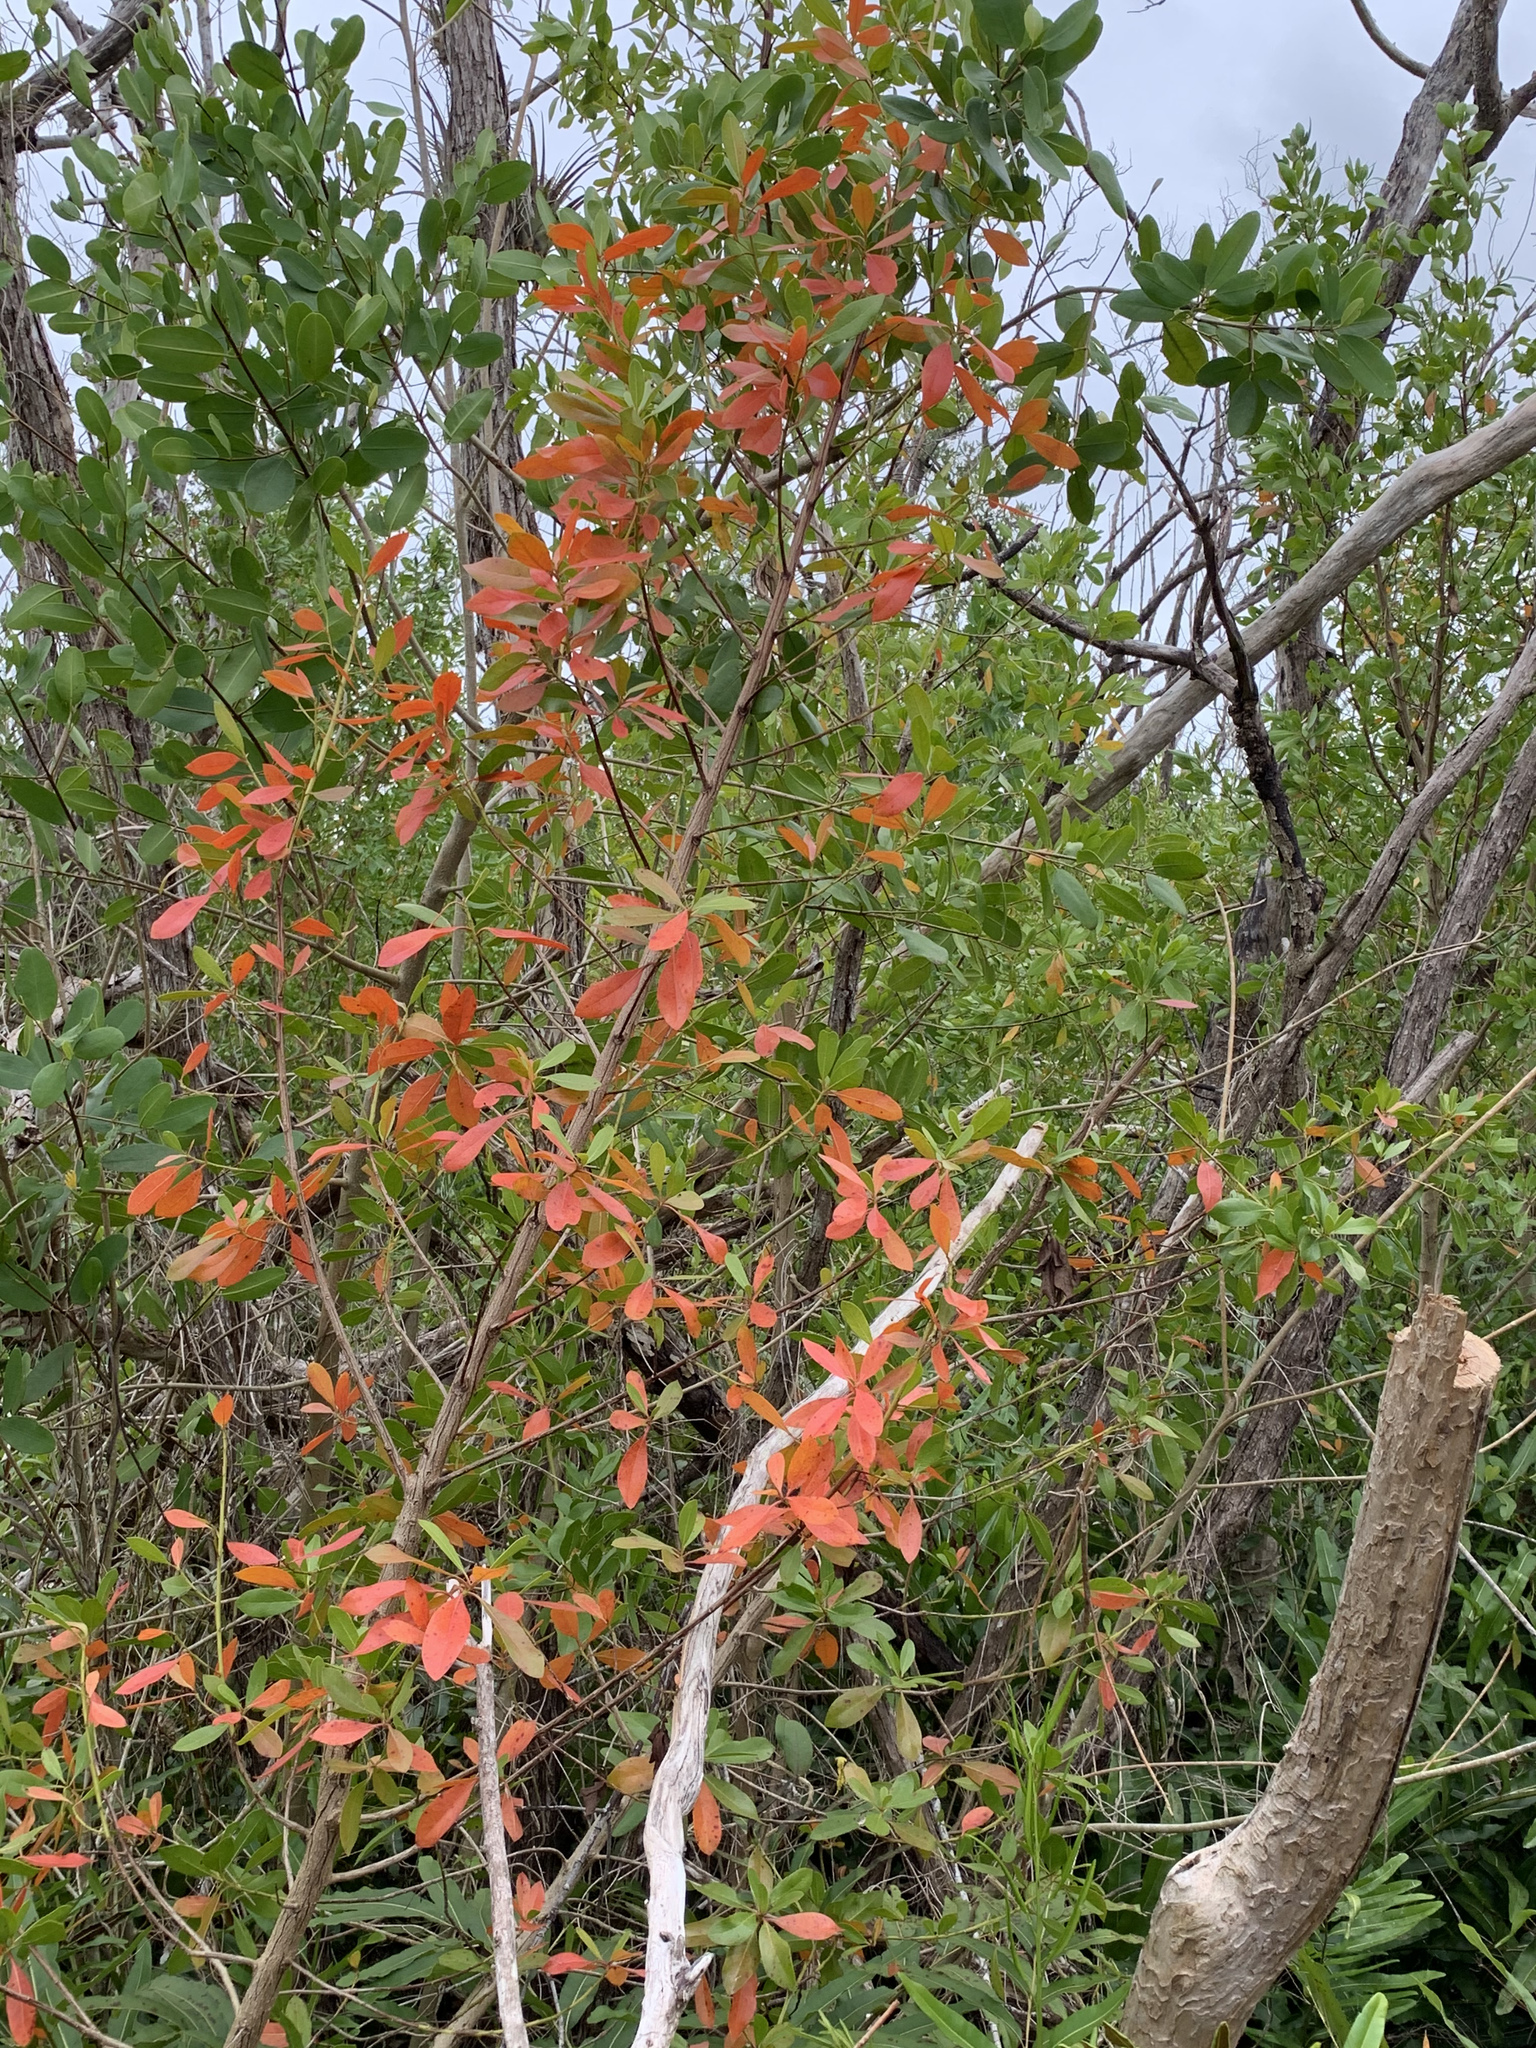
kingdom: Plantae
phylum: Tracheophyta
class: Magnoliopsida
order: Myrtales
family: Combretaceae
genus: Conocarpus
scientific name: Conocarpus erectus
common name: Button mangrove
